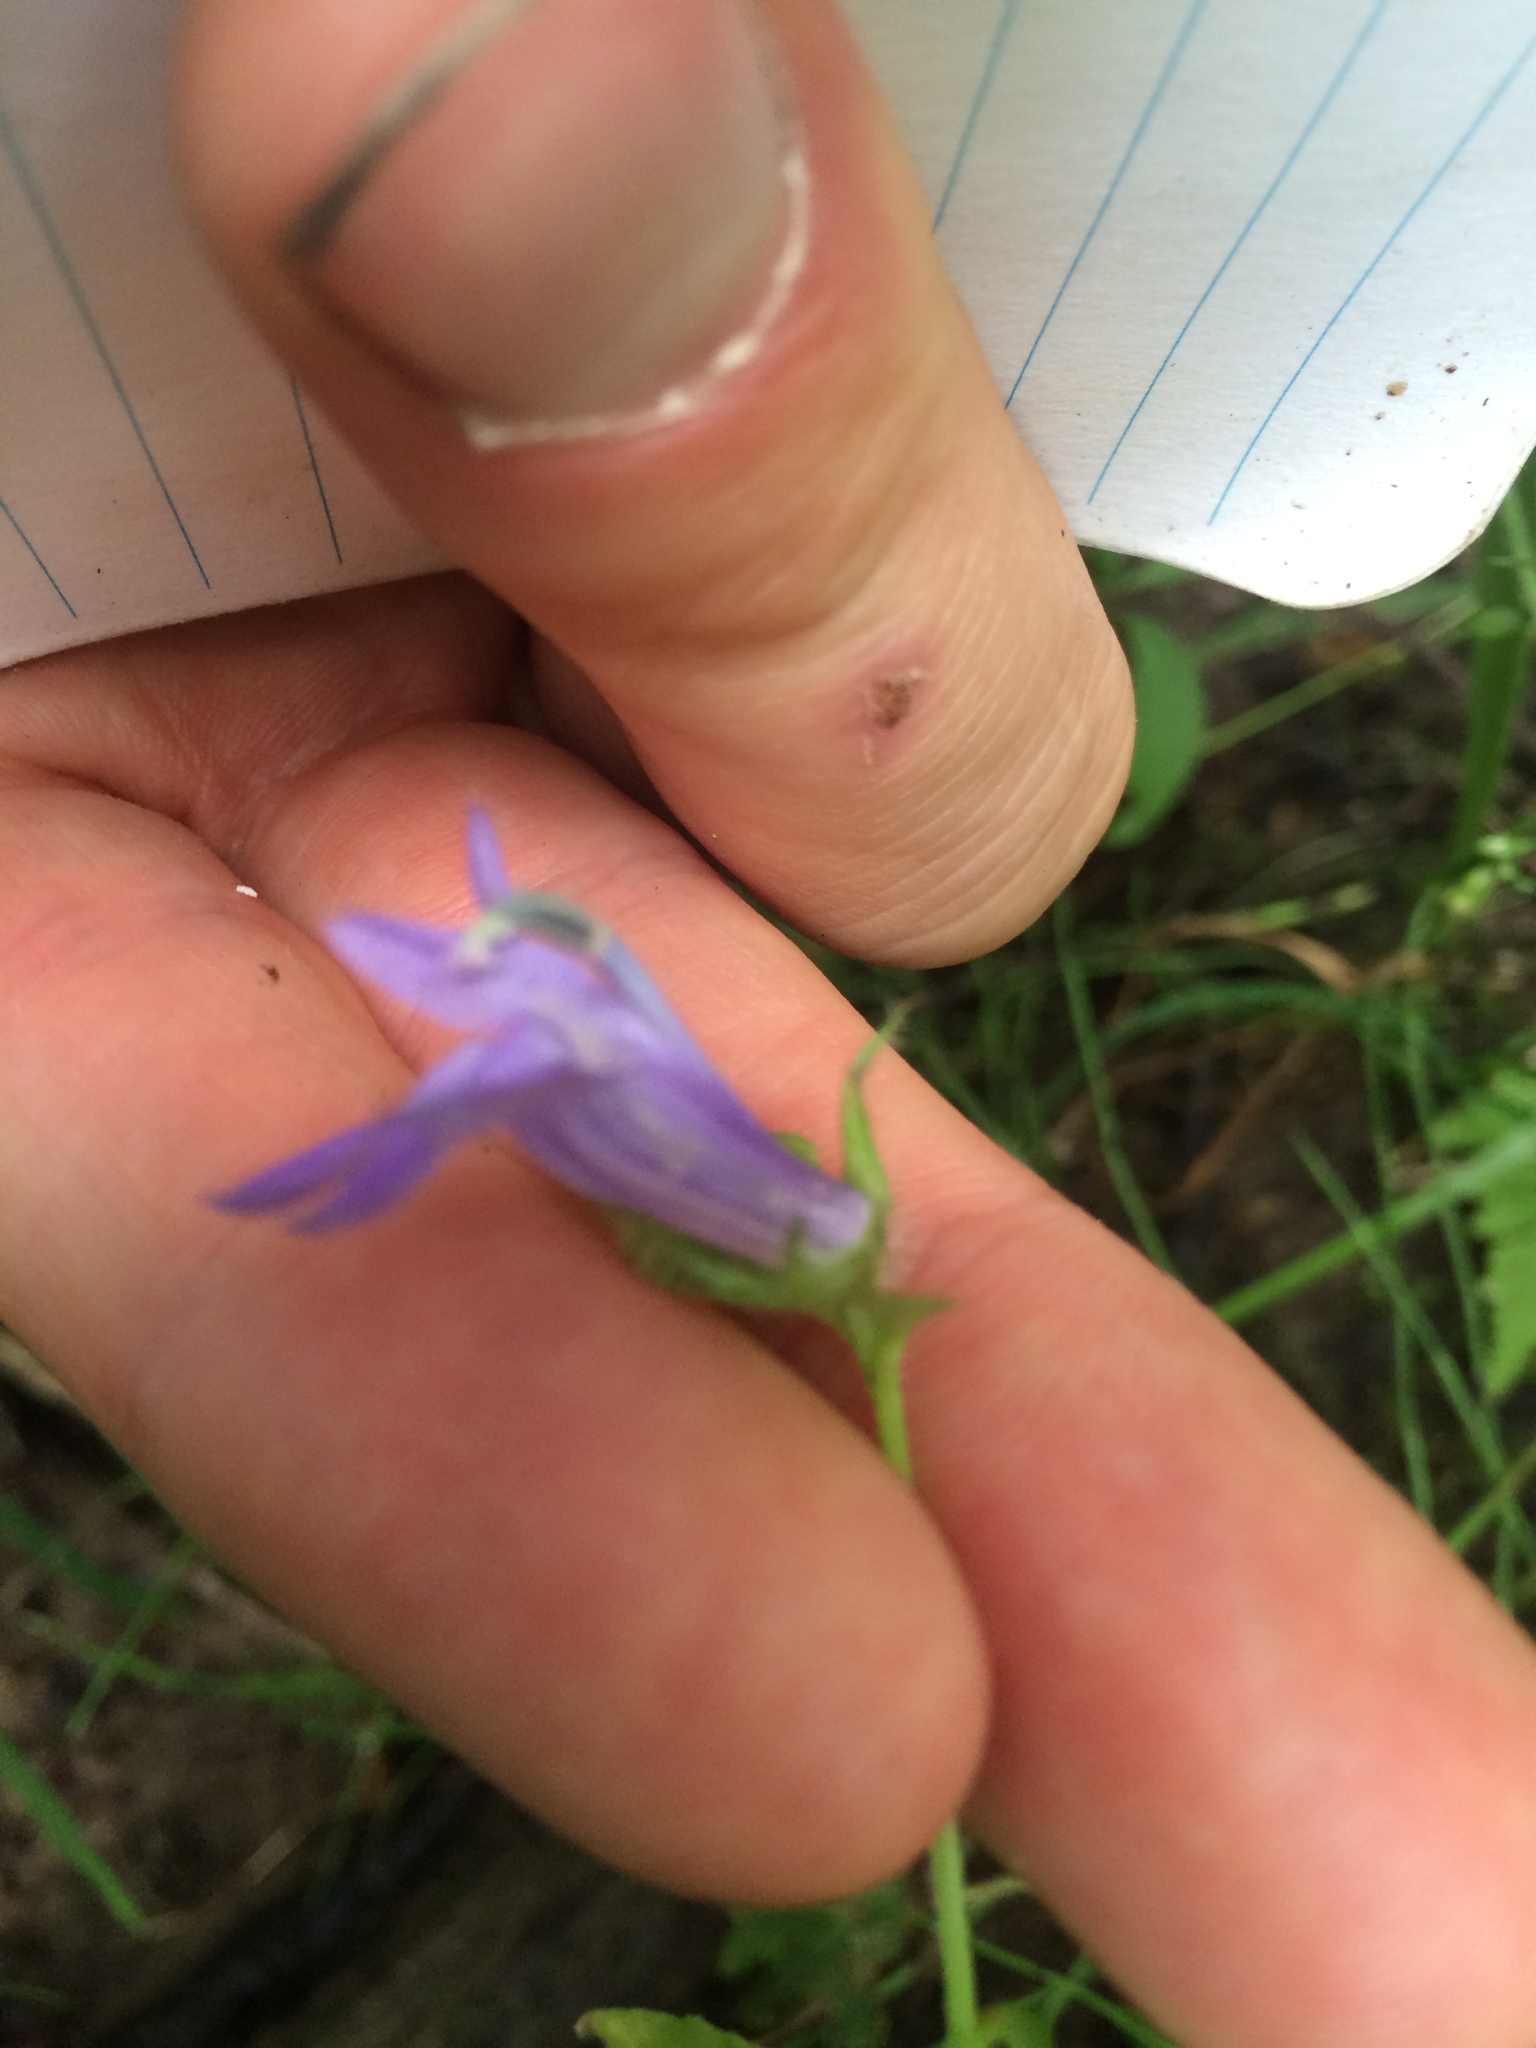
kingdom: Plantae
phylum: Tracheophyta
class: Magnoliopsida
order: Asterales
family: Campanulaceae
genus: Lobelia
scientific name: Lobelia siphilitica
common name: Great lobelia
